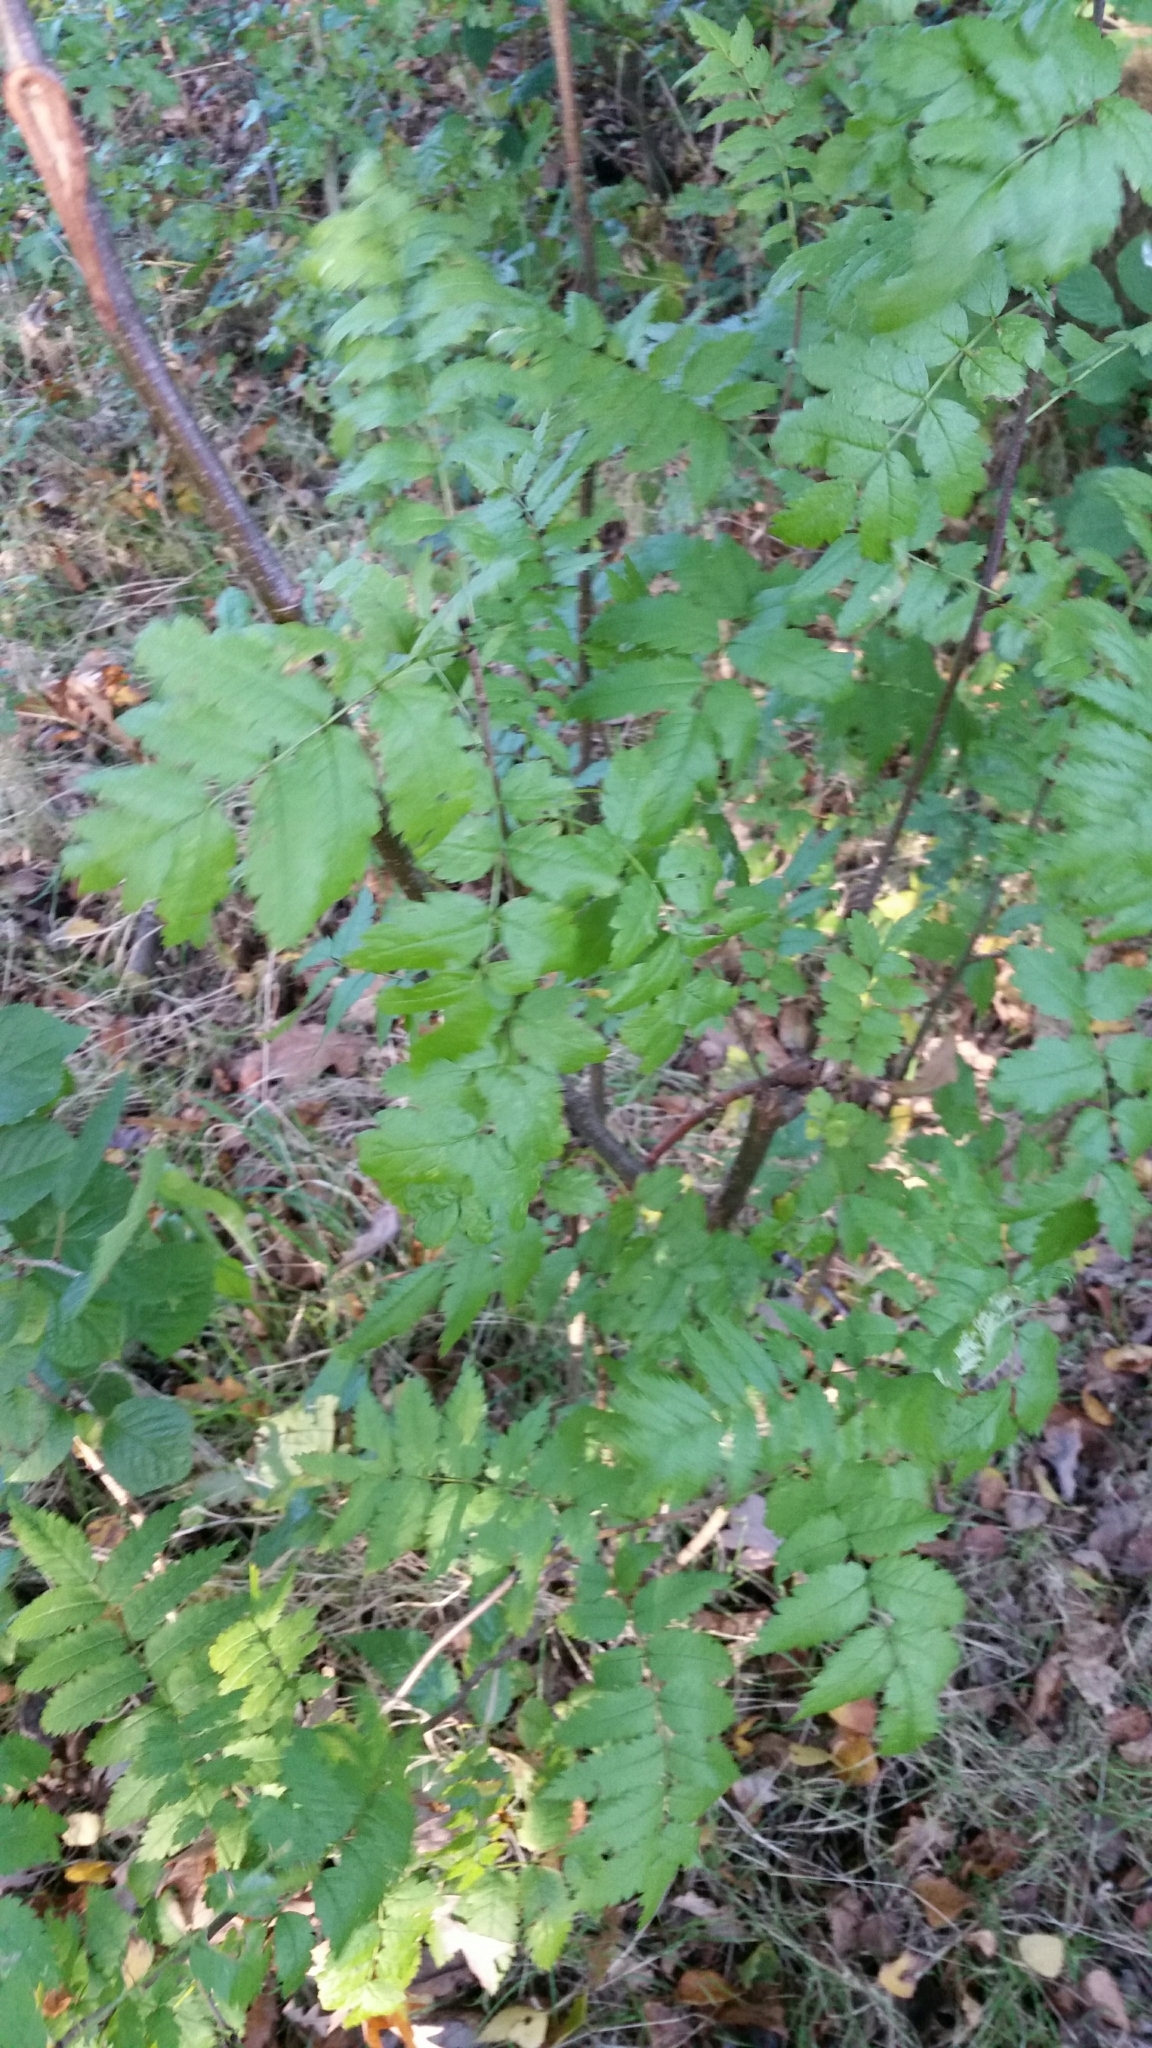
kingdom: Plantae
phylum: Tracheophyta
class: Magnoliopsida
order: Rosales
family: Rosaceae
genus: Sorbus
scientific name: Sorbus aucuparia
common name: Rowan
